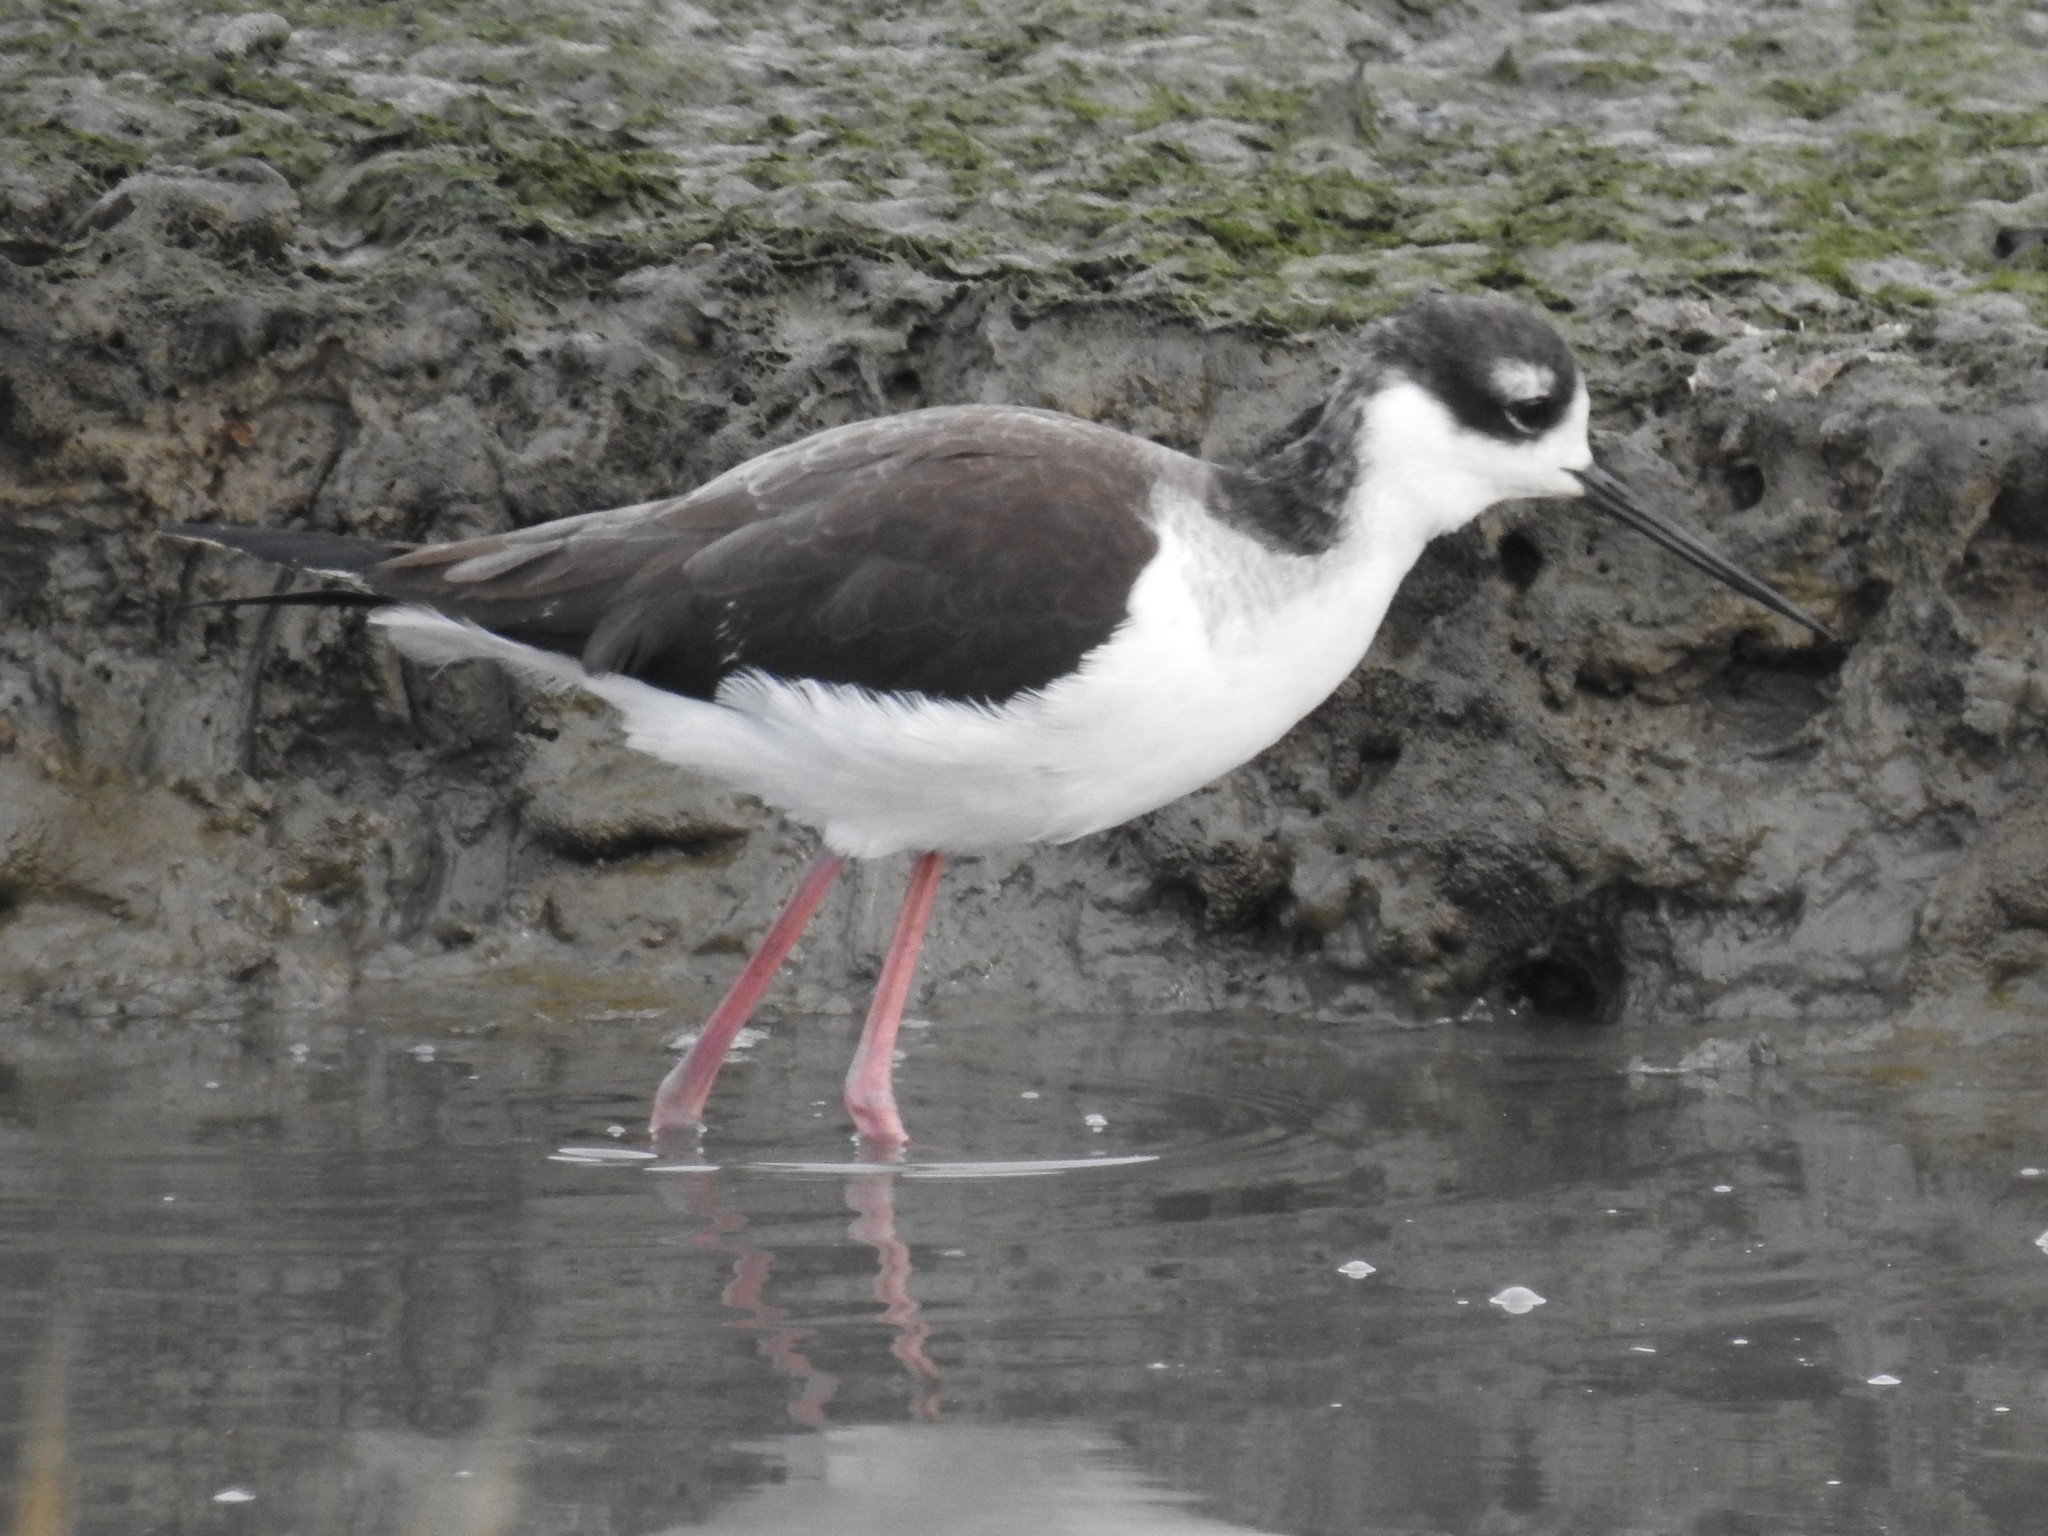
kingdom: Animalia
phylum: Chordata
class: Aves
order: Charadriiformes
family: Recurvirostridae
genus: Himantopus
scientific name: Himantopus mexicanus
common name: Black-necked stilt
